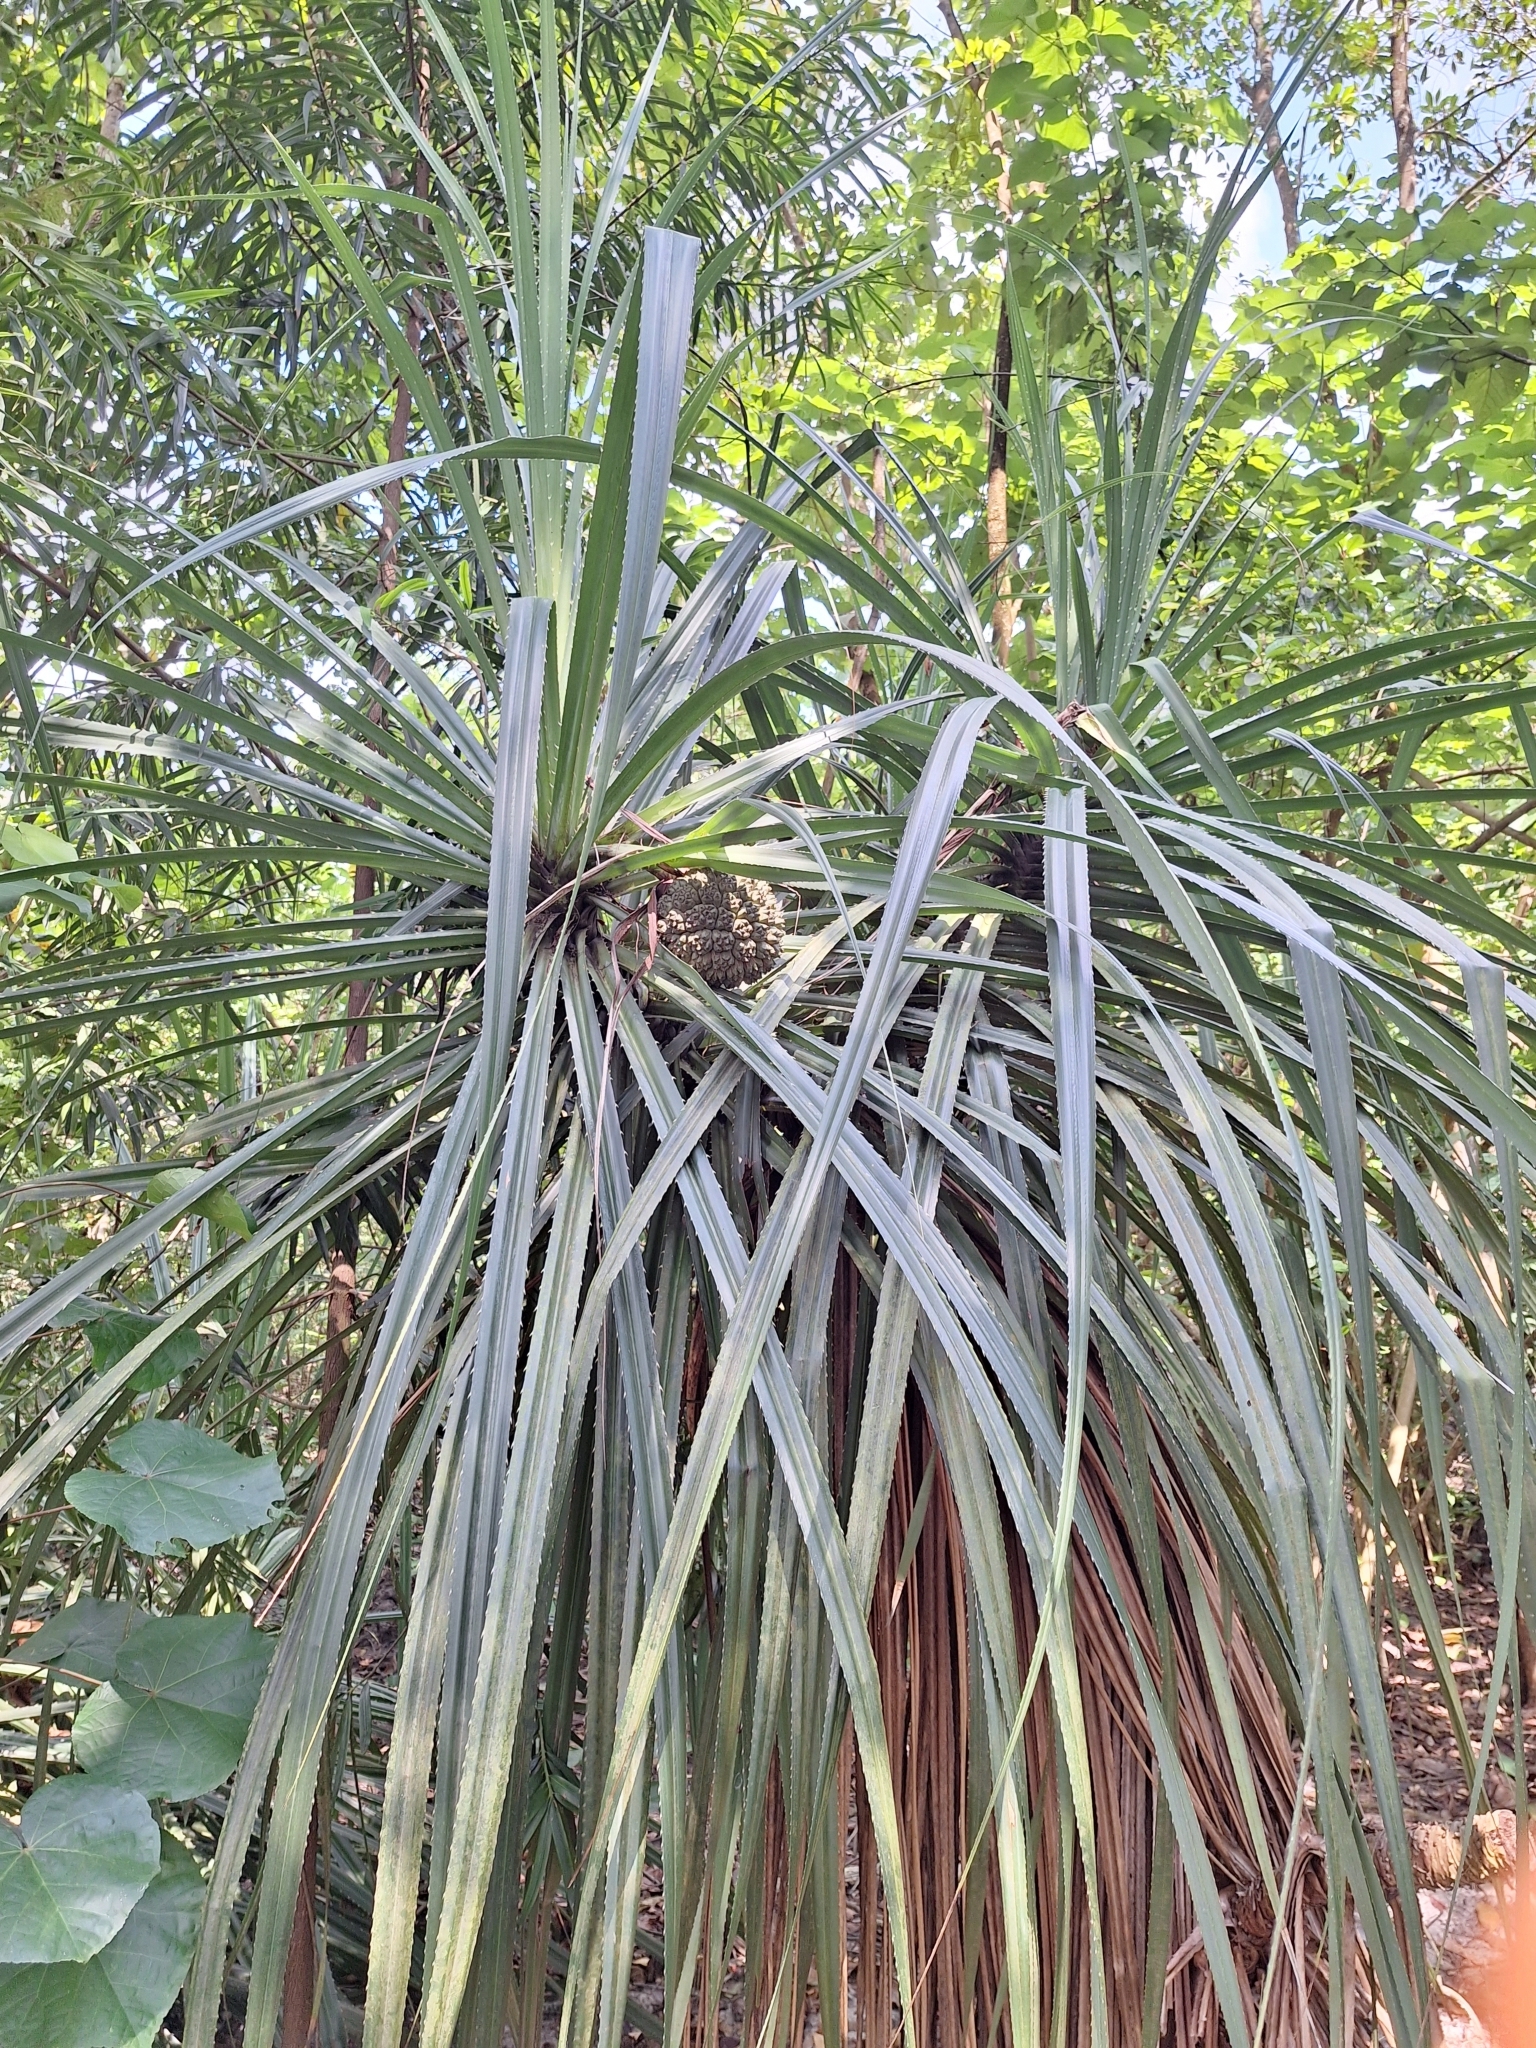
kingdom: Plantae
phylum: Tracheophyta
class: Liliopsida
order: Pandanales
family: Pandanaceae
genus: Pandanus
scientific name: Pandanus odorifer
